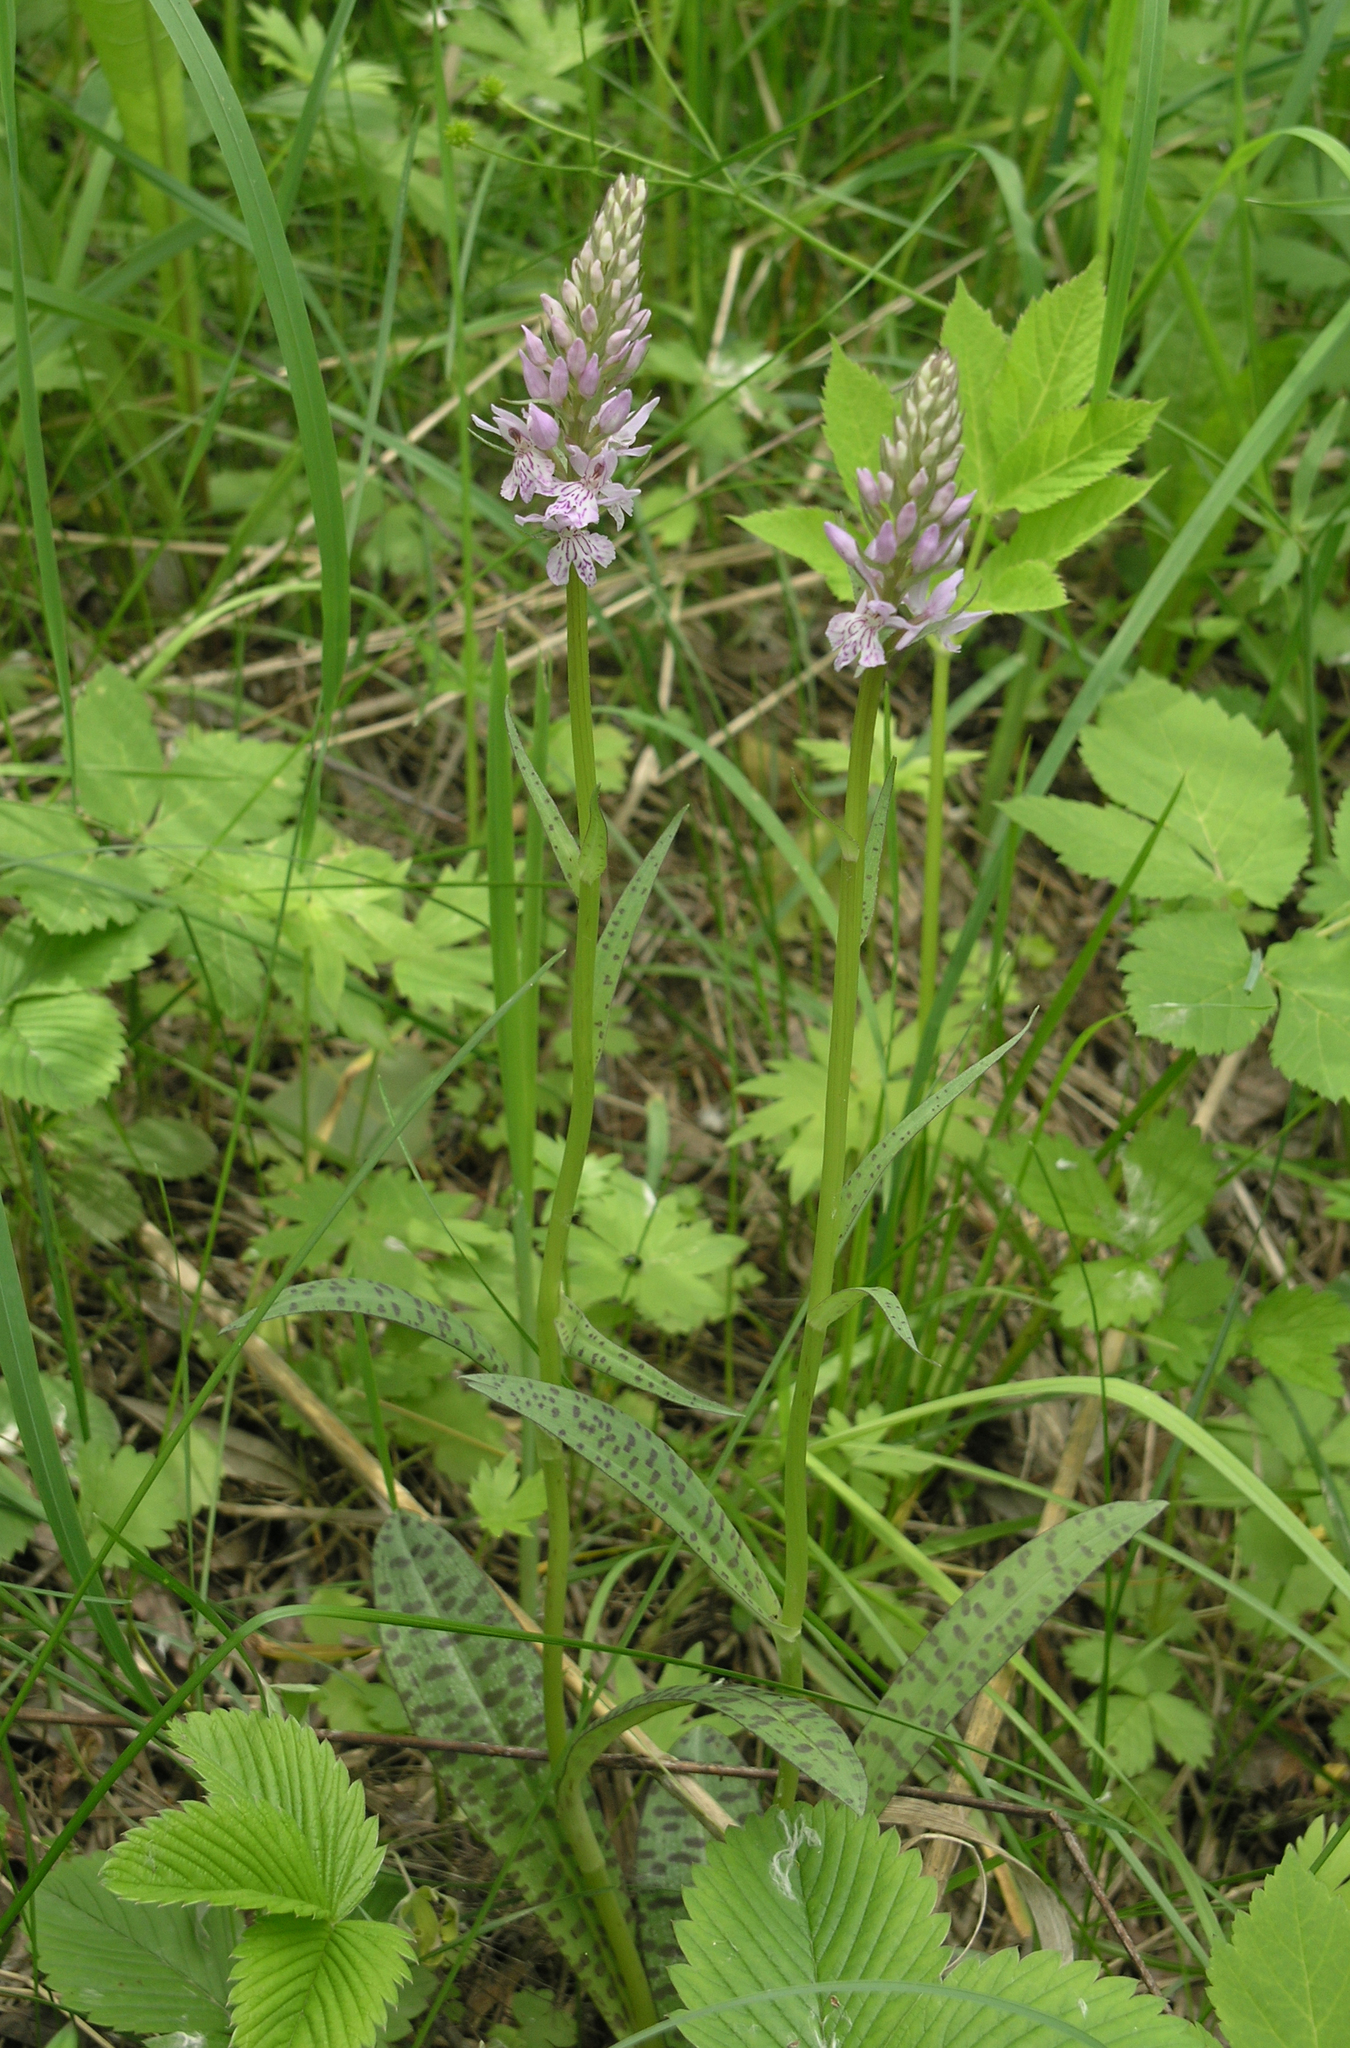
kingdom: Plantae
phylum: Tracheophyta
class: Liliopsida
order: Asparagales
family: Orchidaceae
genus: Dactylorhiza
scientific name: Dactylorhiza maculata
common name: Heath spotted-orchid
